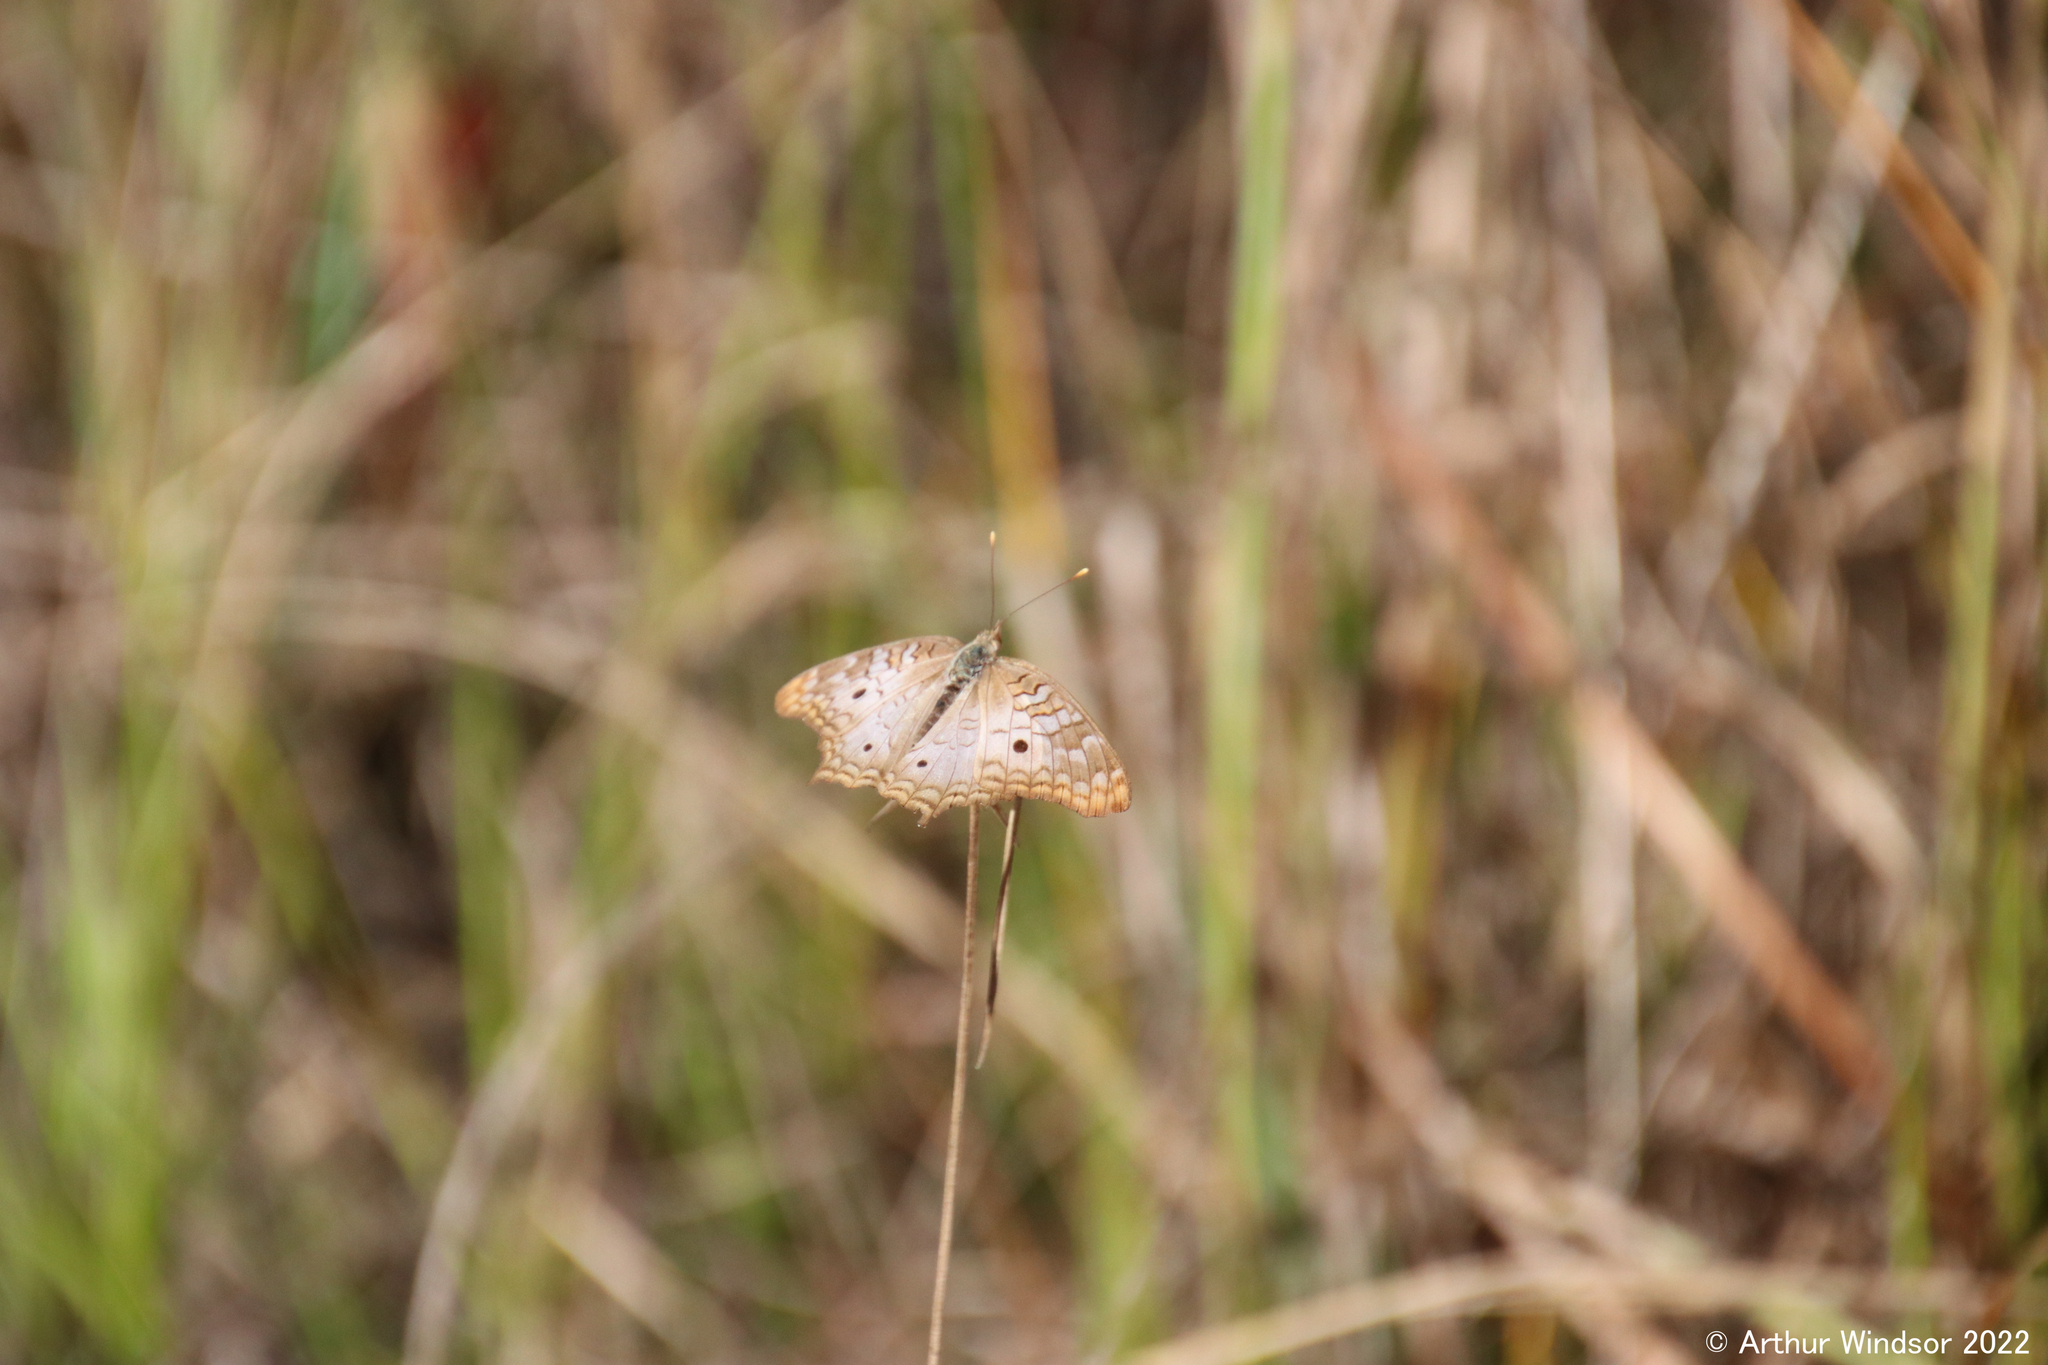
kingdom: Animalia
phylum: Arthropoda
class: Insecta
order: Lepidoptera
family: Nymphalidae
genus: Anartia
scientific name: Anartia jatrophae
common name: White peacock
